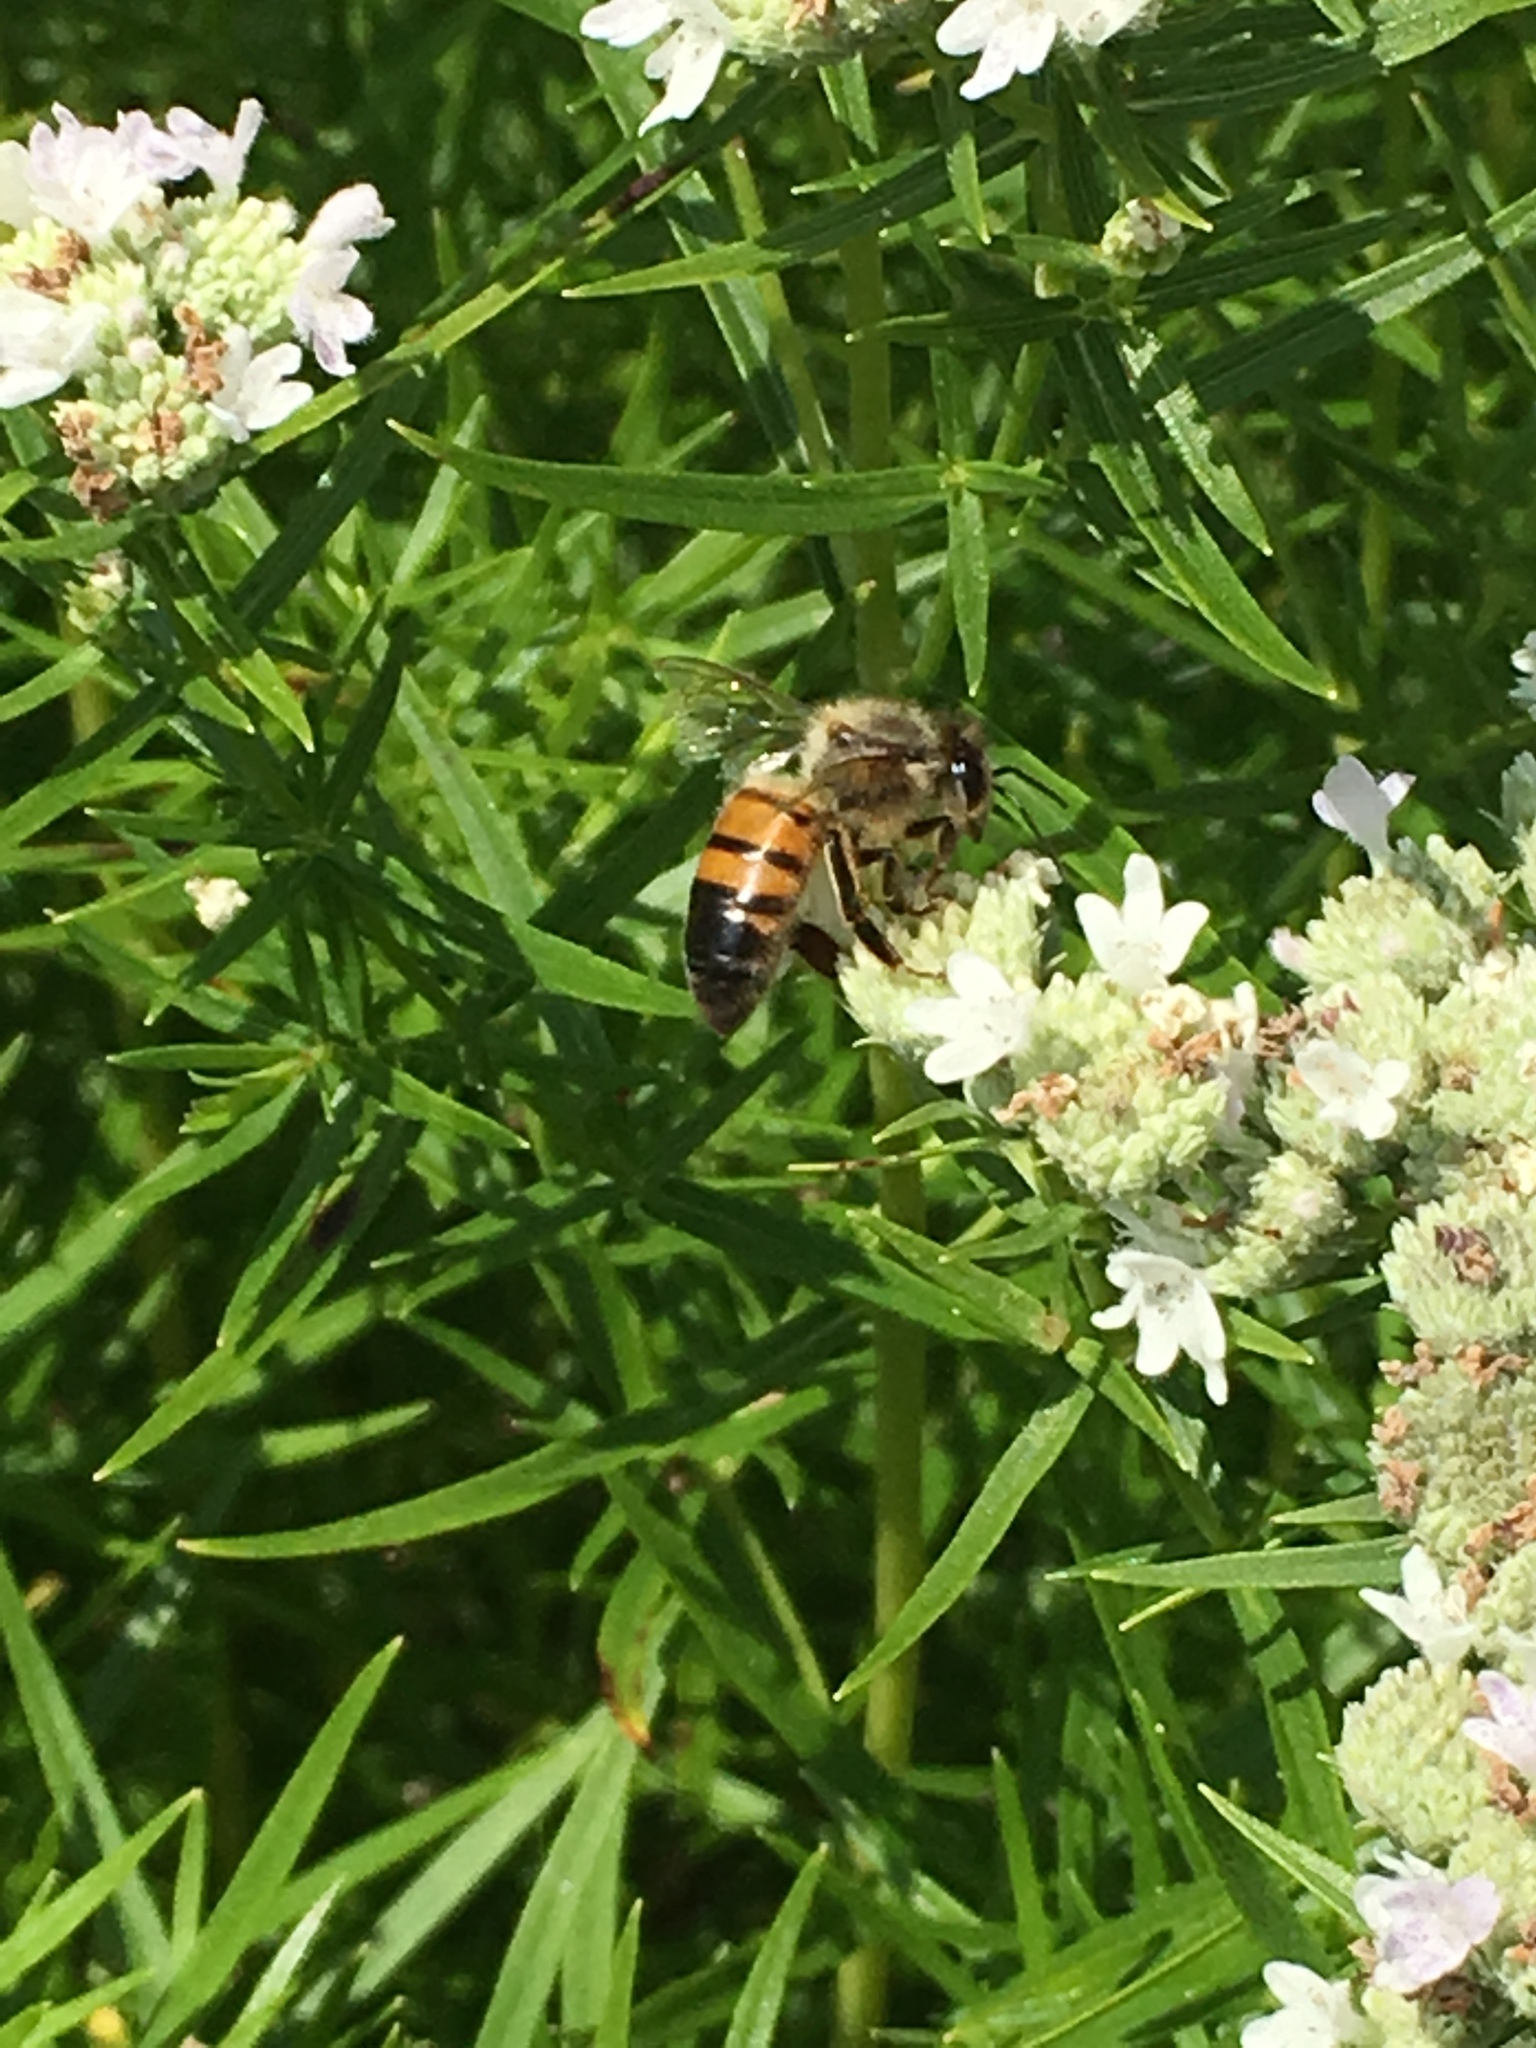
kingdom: Animalia
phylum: Arthropoda
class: Insecta
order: Hymenoptera
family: Apidae
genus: Apis
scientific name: Apis mellifera
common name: Honey bee
